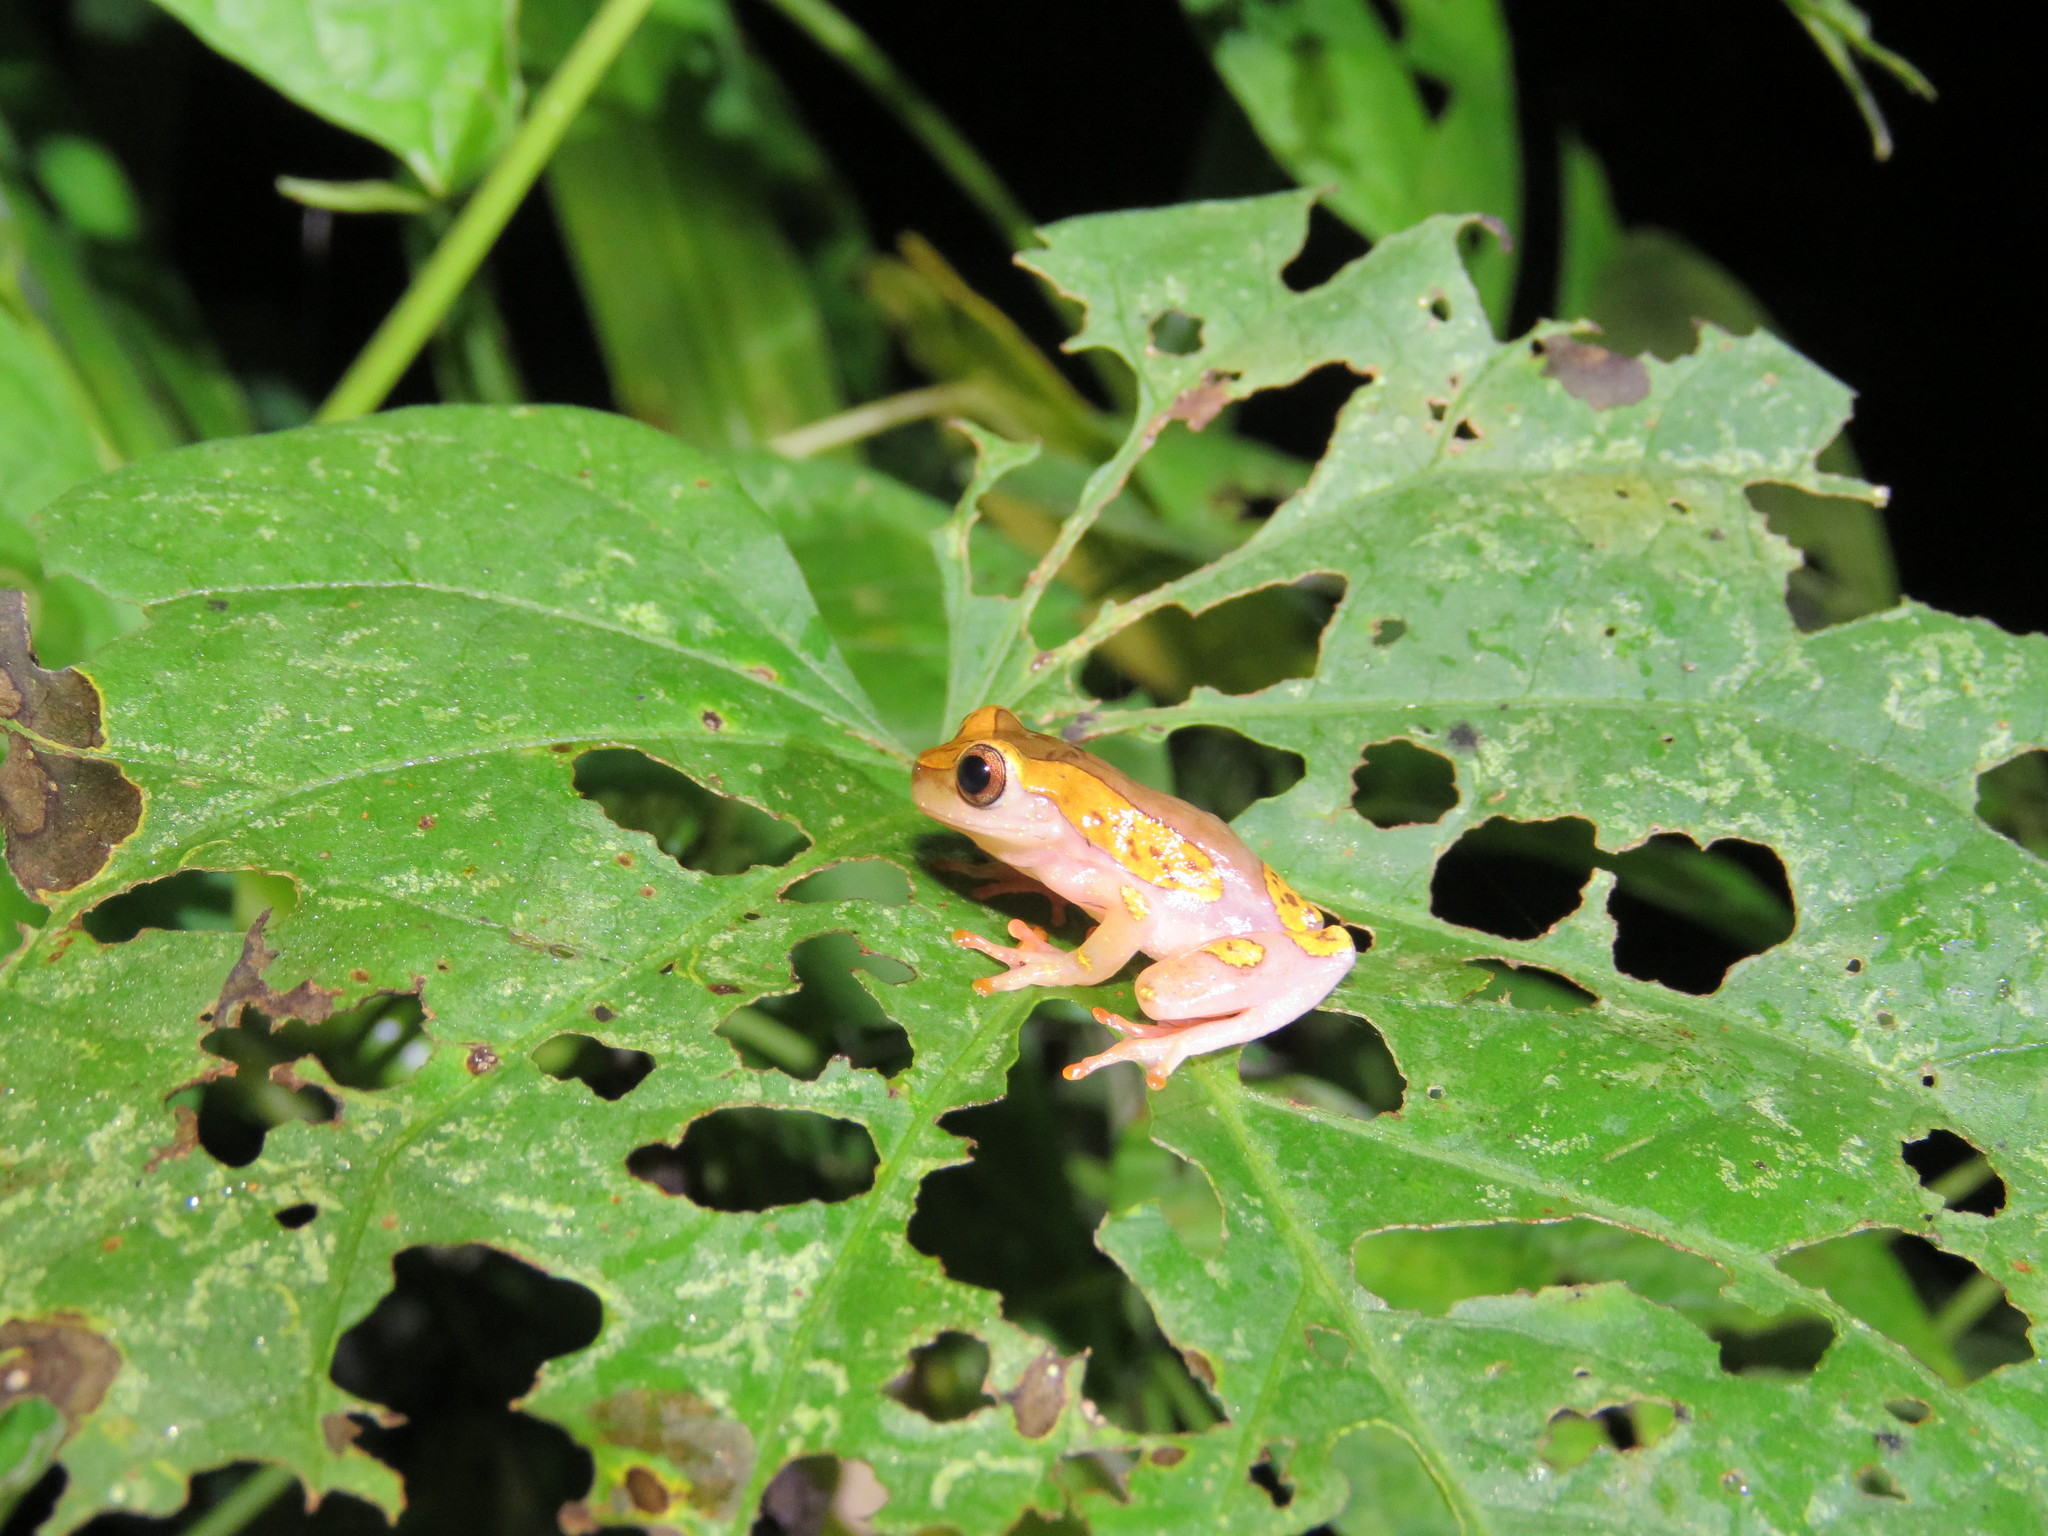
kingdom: Animalia
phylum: Chordata
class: Amphibia
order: Anura
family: Hylidae
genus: Dendropsophus
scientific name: Dendropsophus arndti
